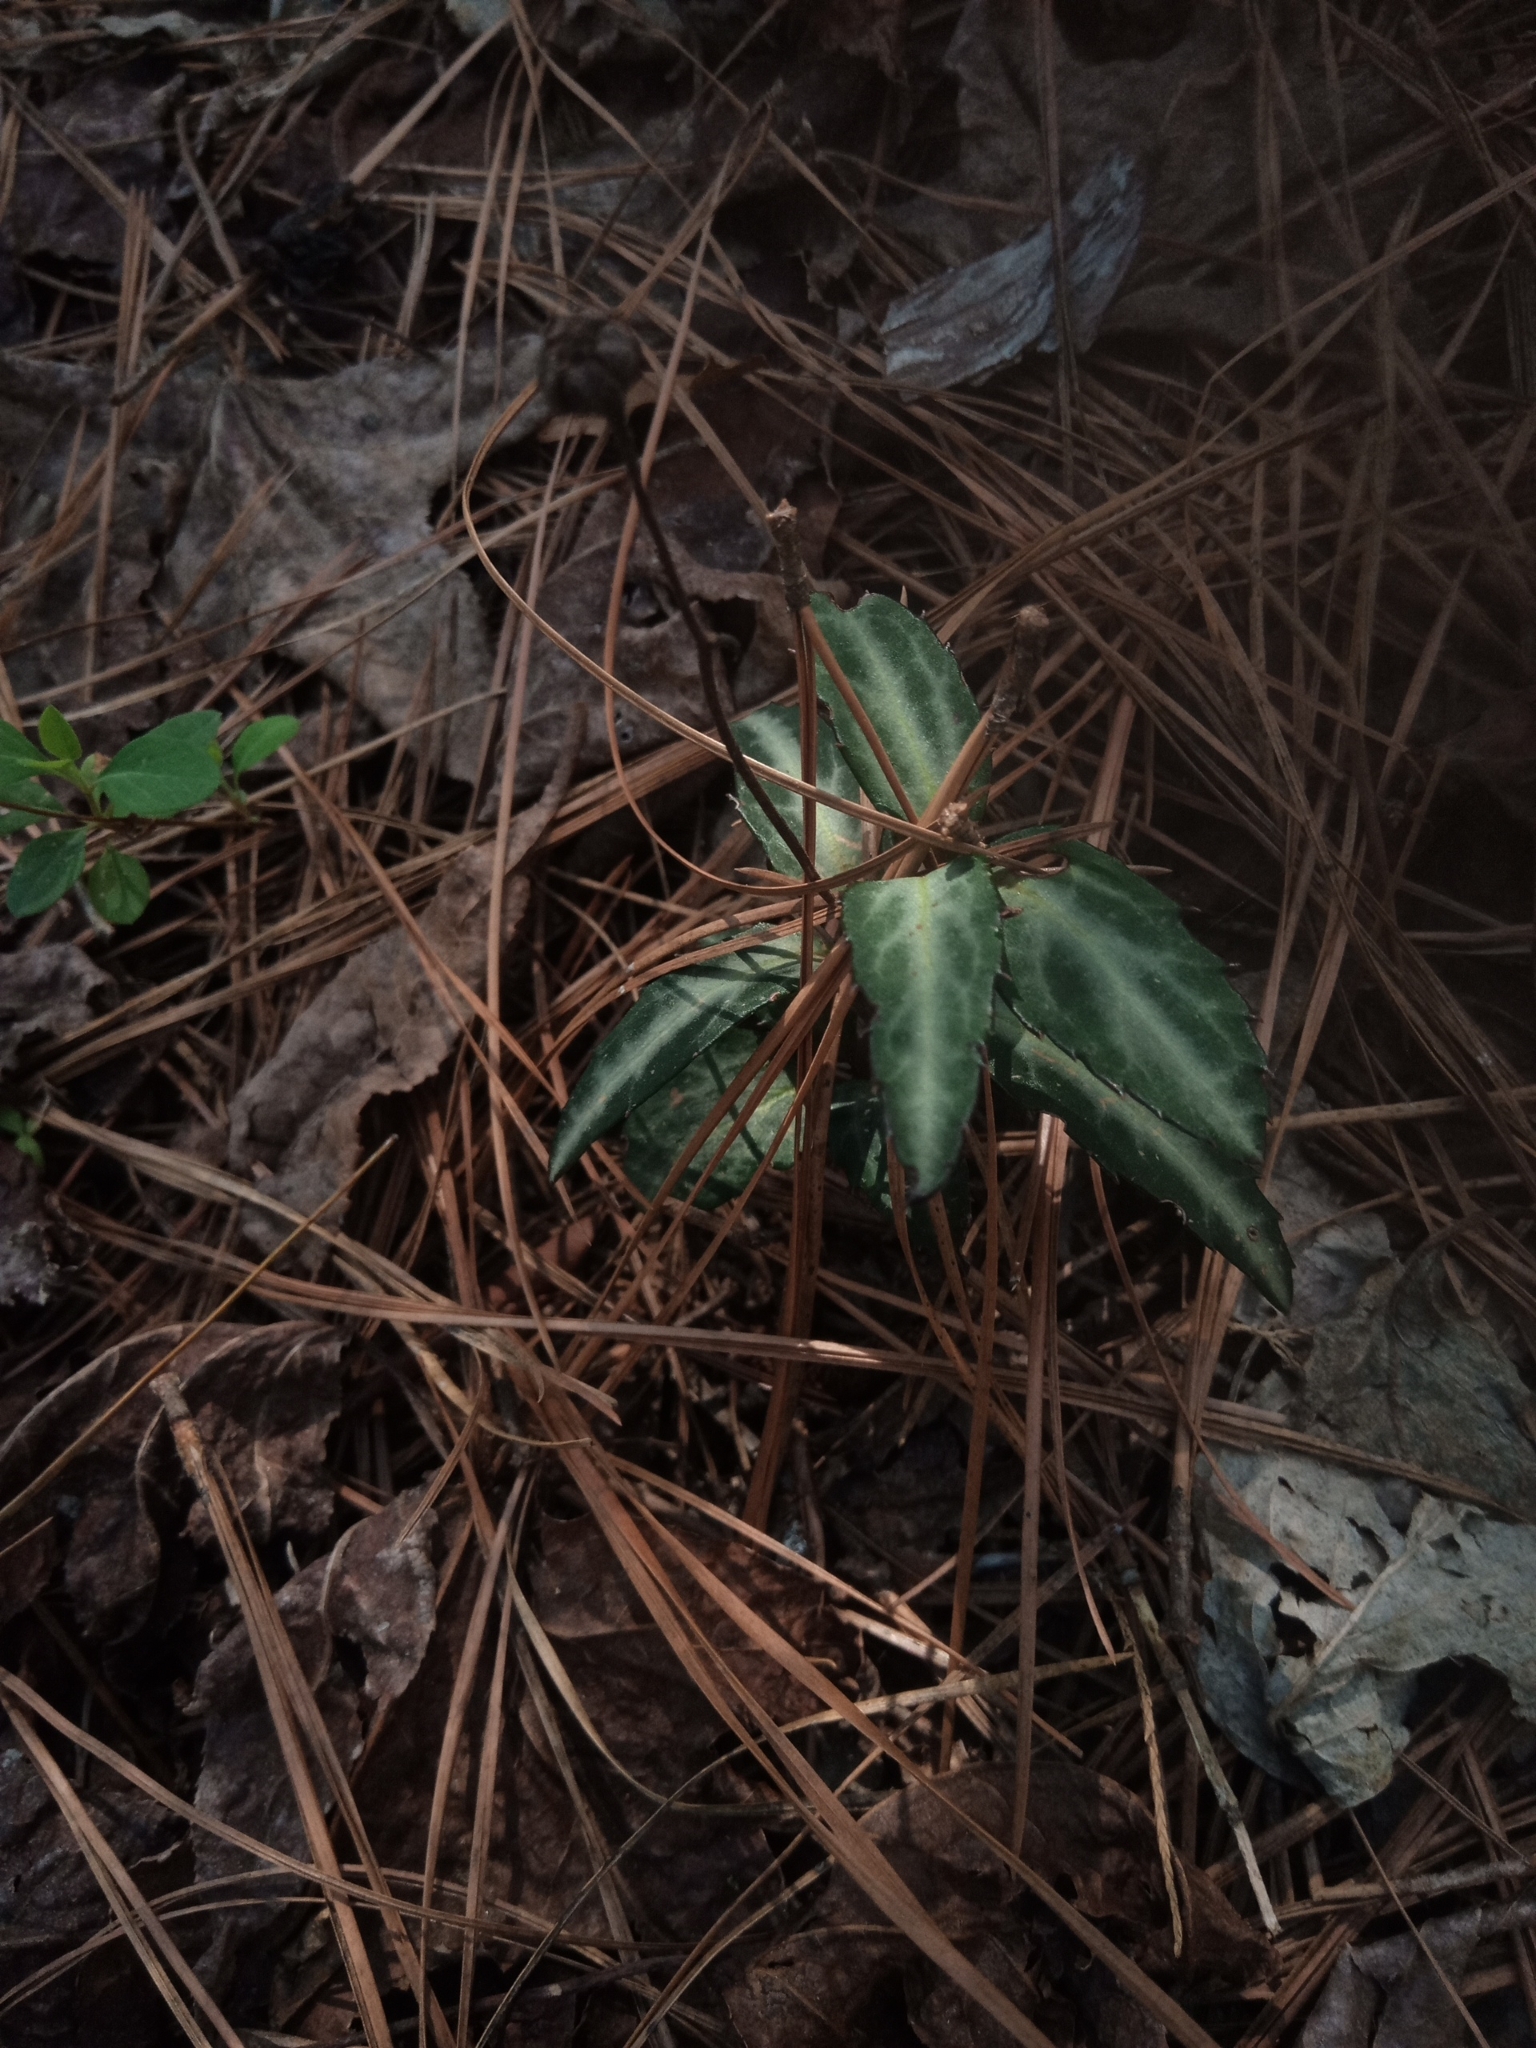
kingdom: Plantae
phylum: Tracheophyta
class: Magnoliopsida
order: Ericales
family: Ericaceae
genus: Chimaphila
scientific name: Chimaphila maculata
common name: Spotted pipsissewa
